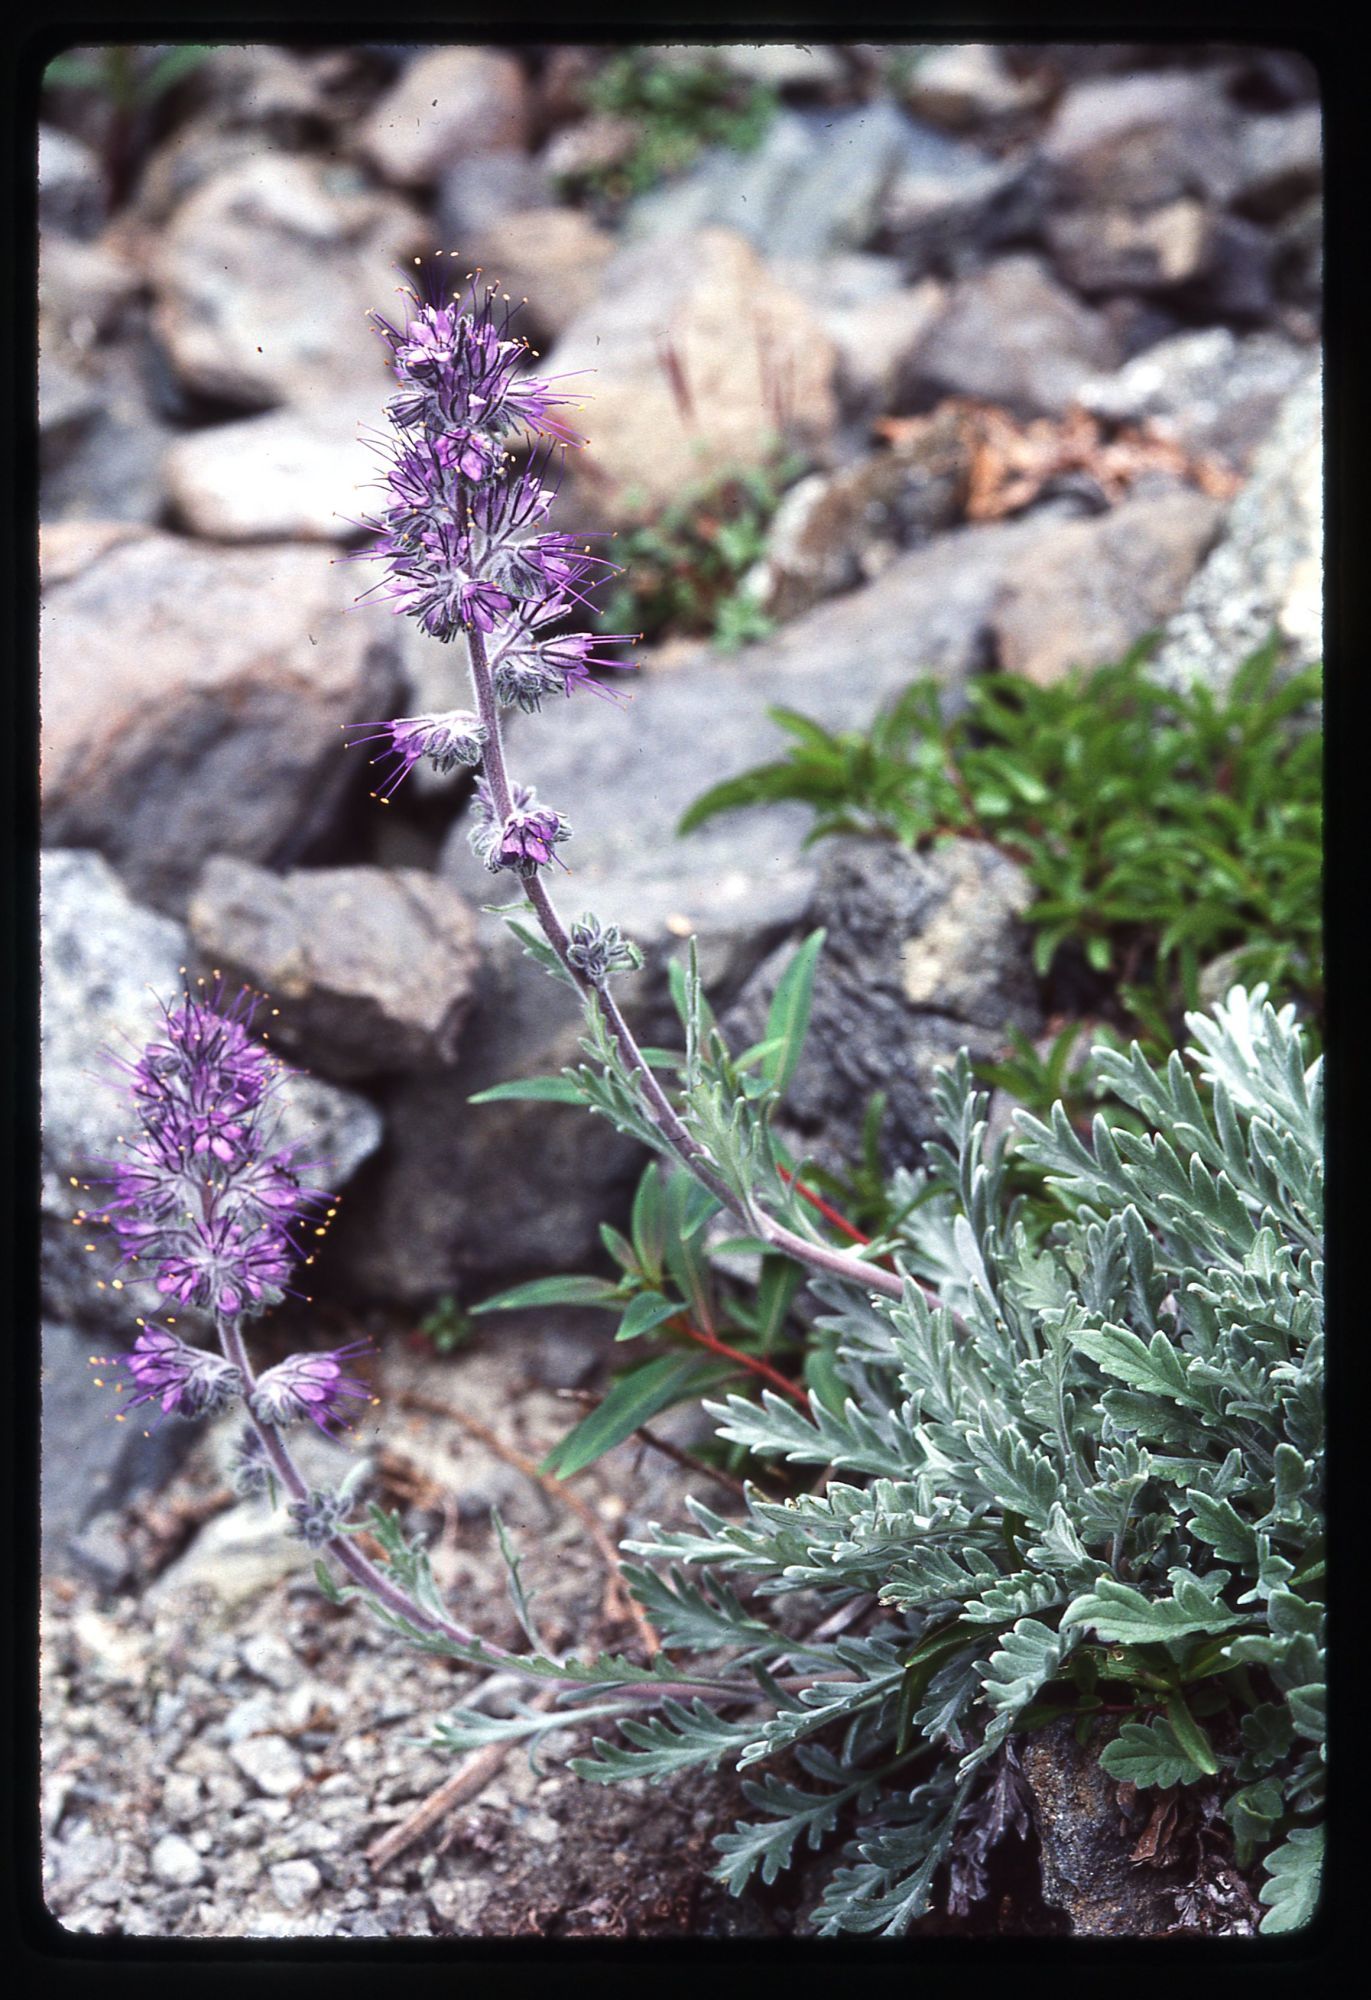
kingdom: Plantae
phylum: Tracheophyta
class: Magnoliopsida
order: Boraginales
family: Hydrophyllaceae
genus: Phacelia
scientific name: Phacelia sericea
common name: Silky phacelia
